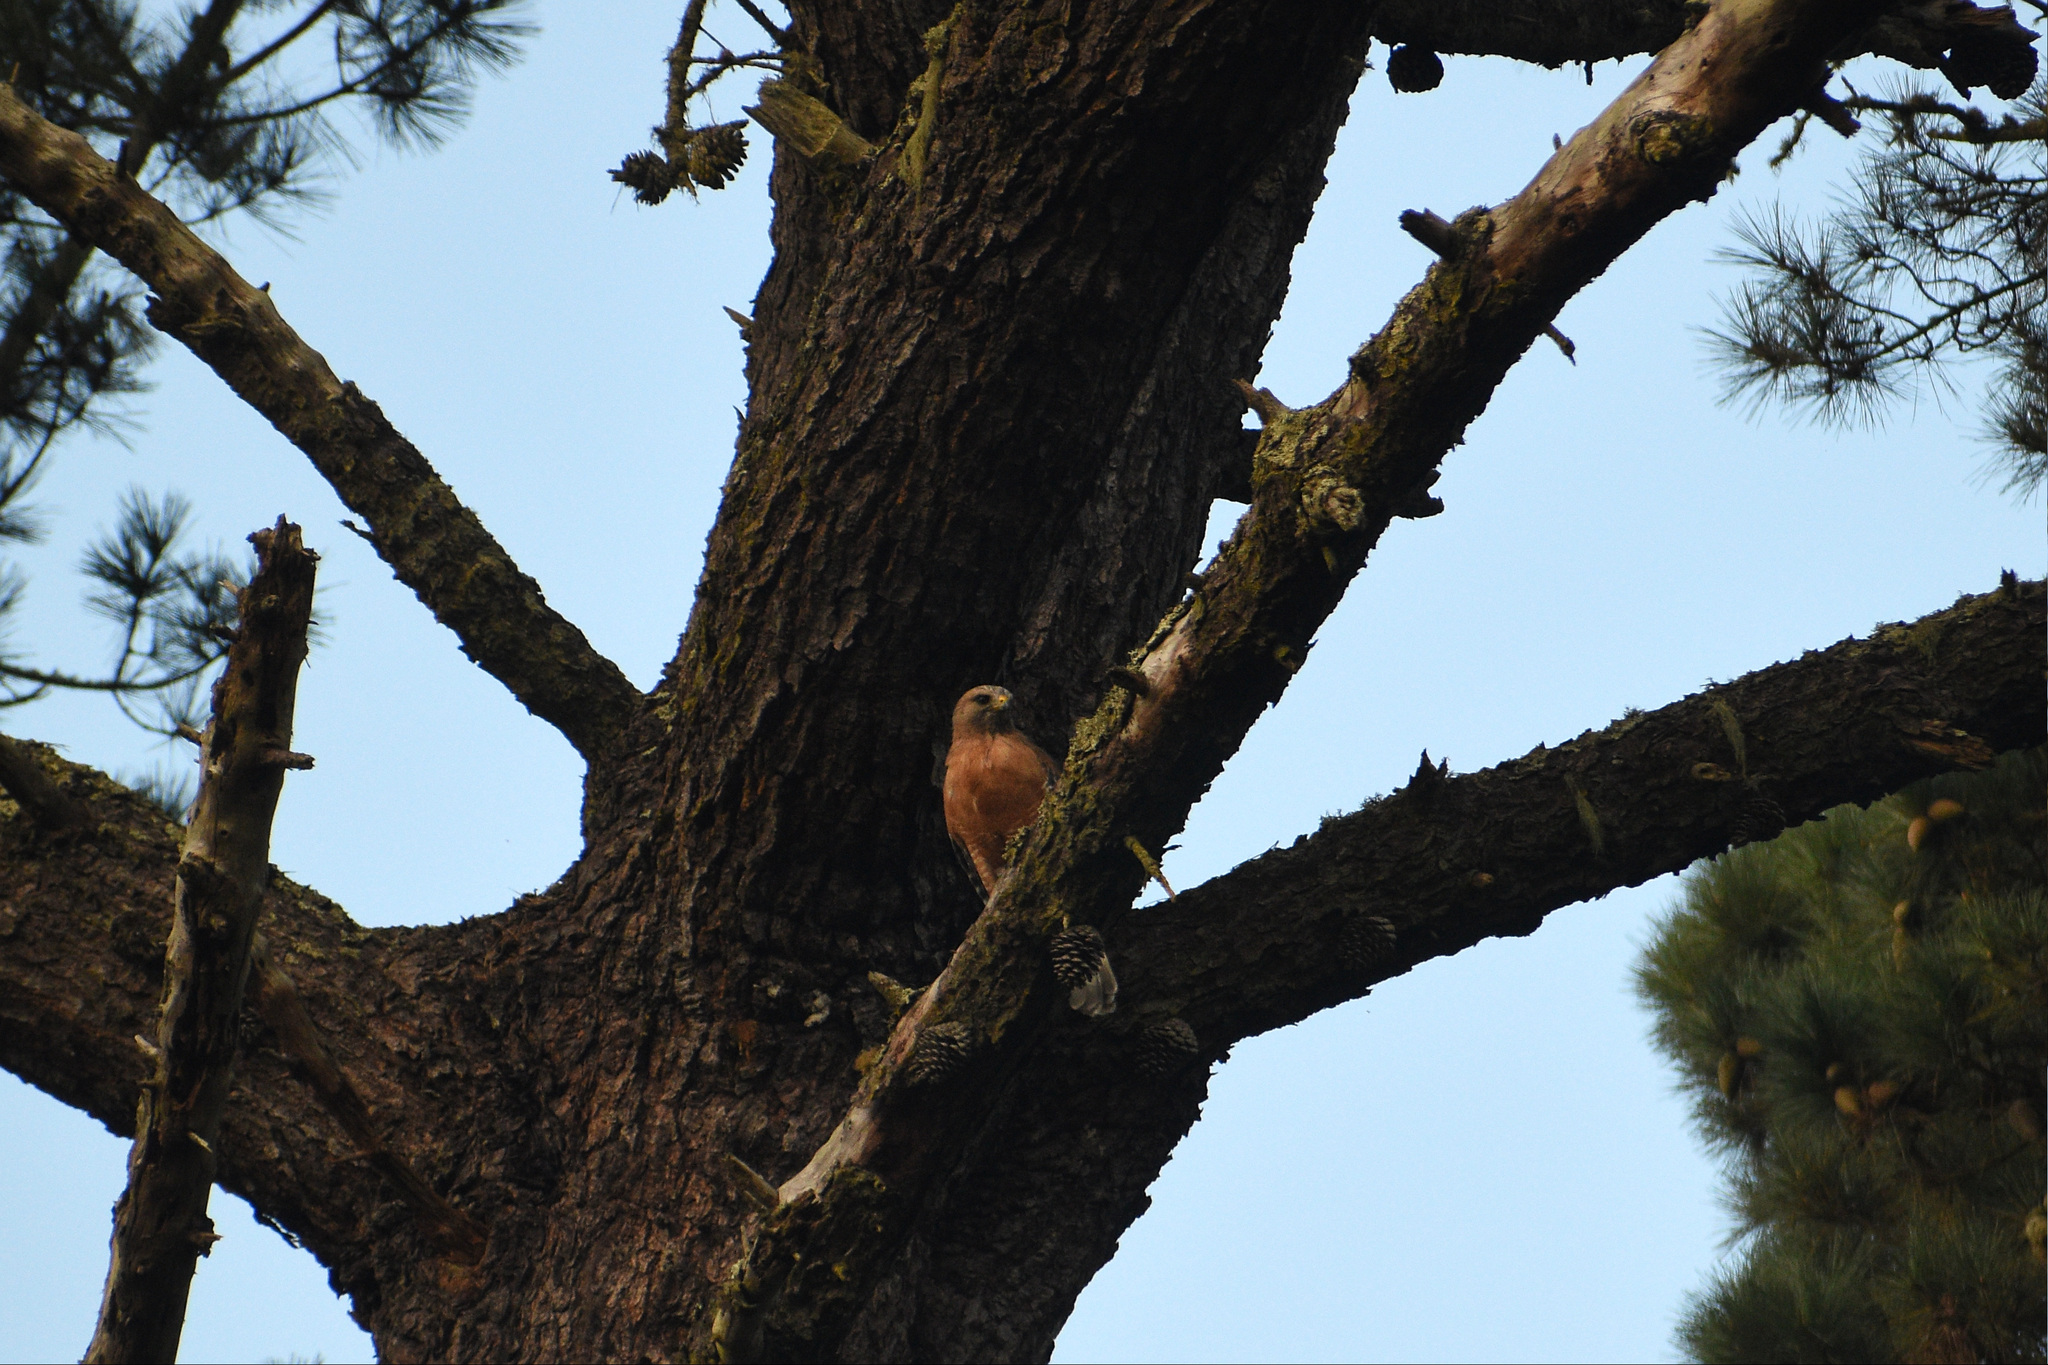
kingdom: Animalia
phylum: Chordata
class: Aves
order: Accipitriformes
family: Accipitridae
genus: Buteo
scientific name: Buteo lineatus
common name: Red-shouldered hawk
